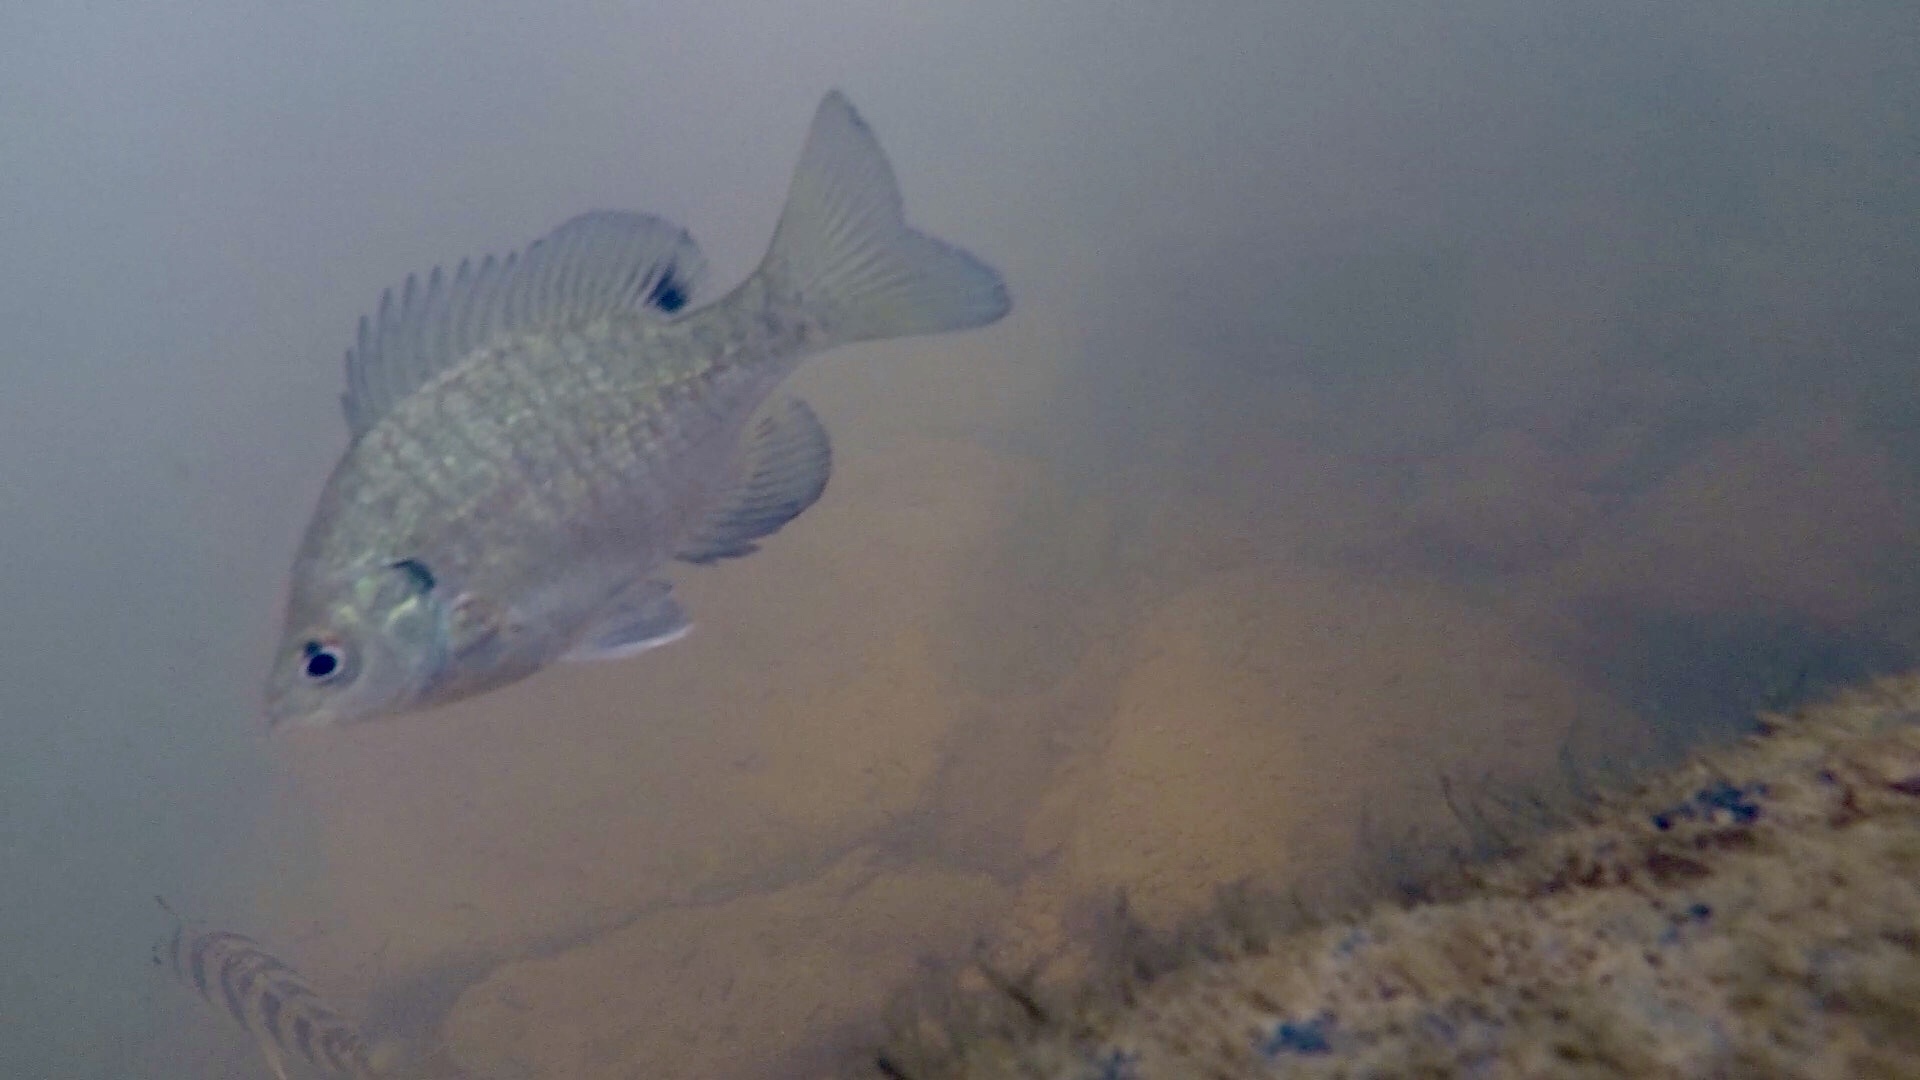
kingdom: Animalia
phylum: Chordata
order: Perciformes
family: Centrarchidae
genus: Lepomis
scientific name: Lepomis macrochirus
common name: Bluegill
